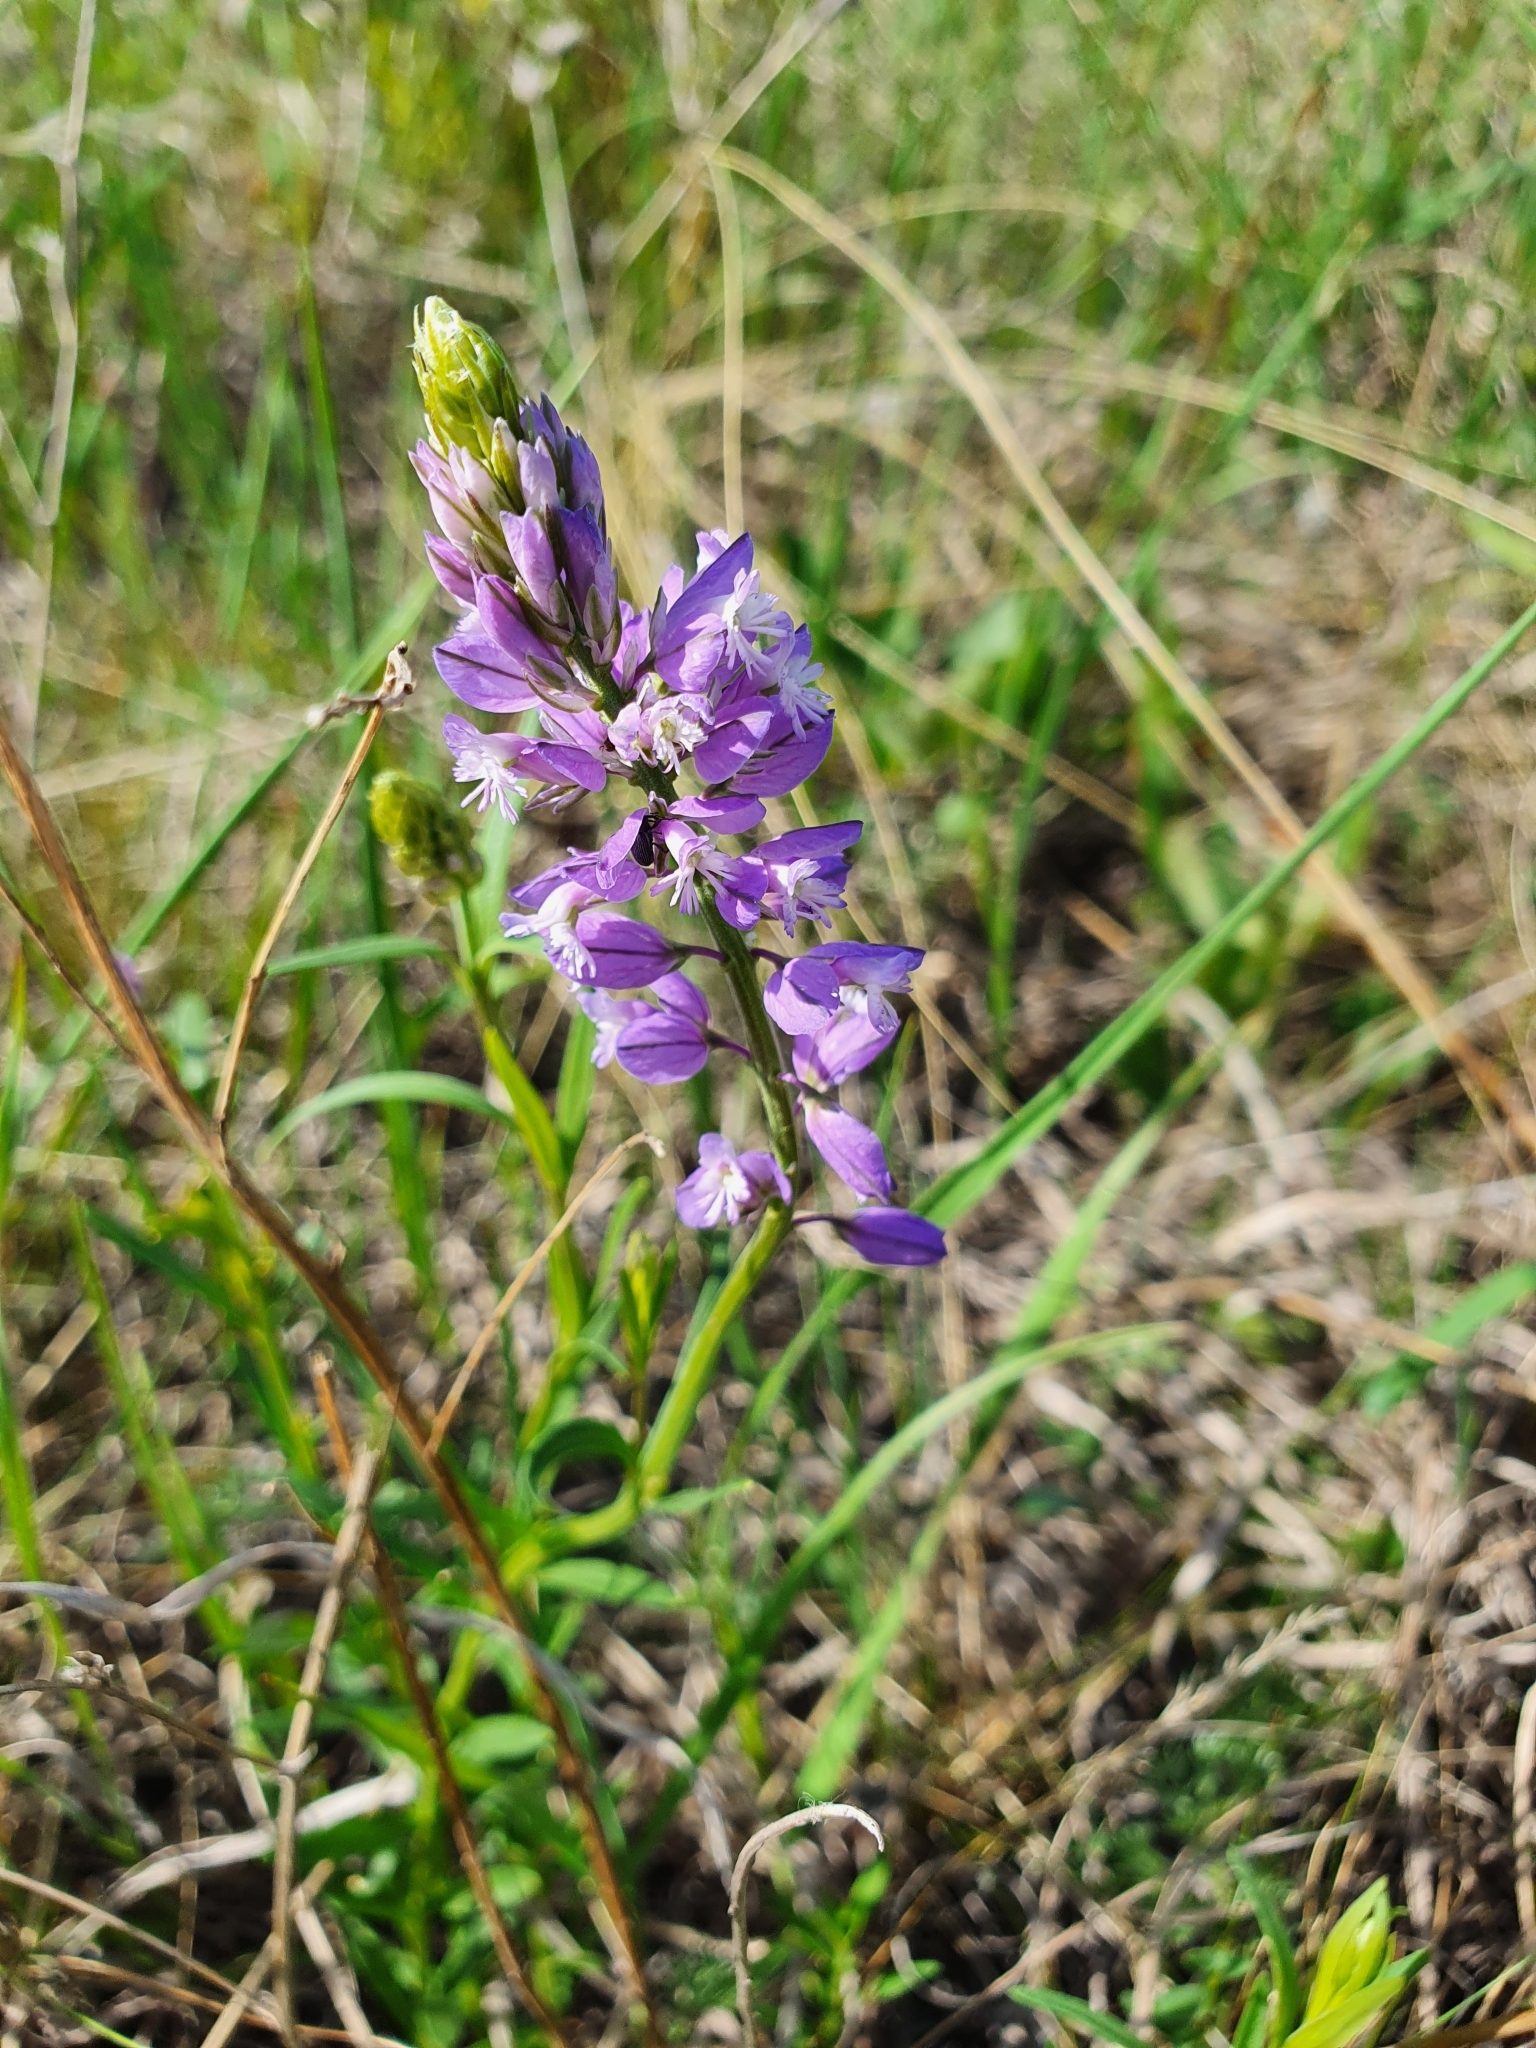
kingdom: Plantae
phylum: Tracheophyta
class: Magnoliopsida
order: Fabales
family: Polygalaceae
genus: Polygala
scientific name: Polygala comosa
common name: Tufted milkwort
